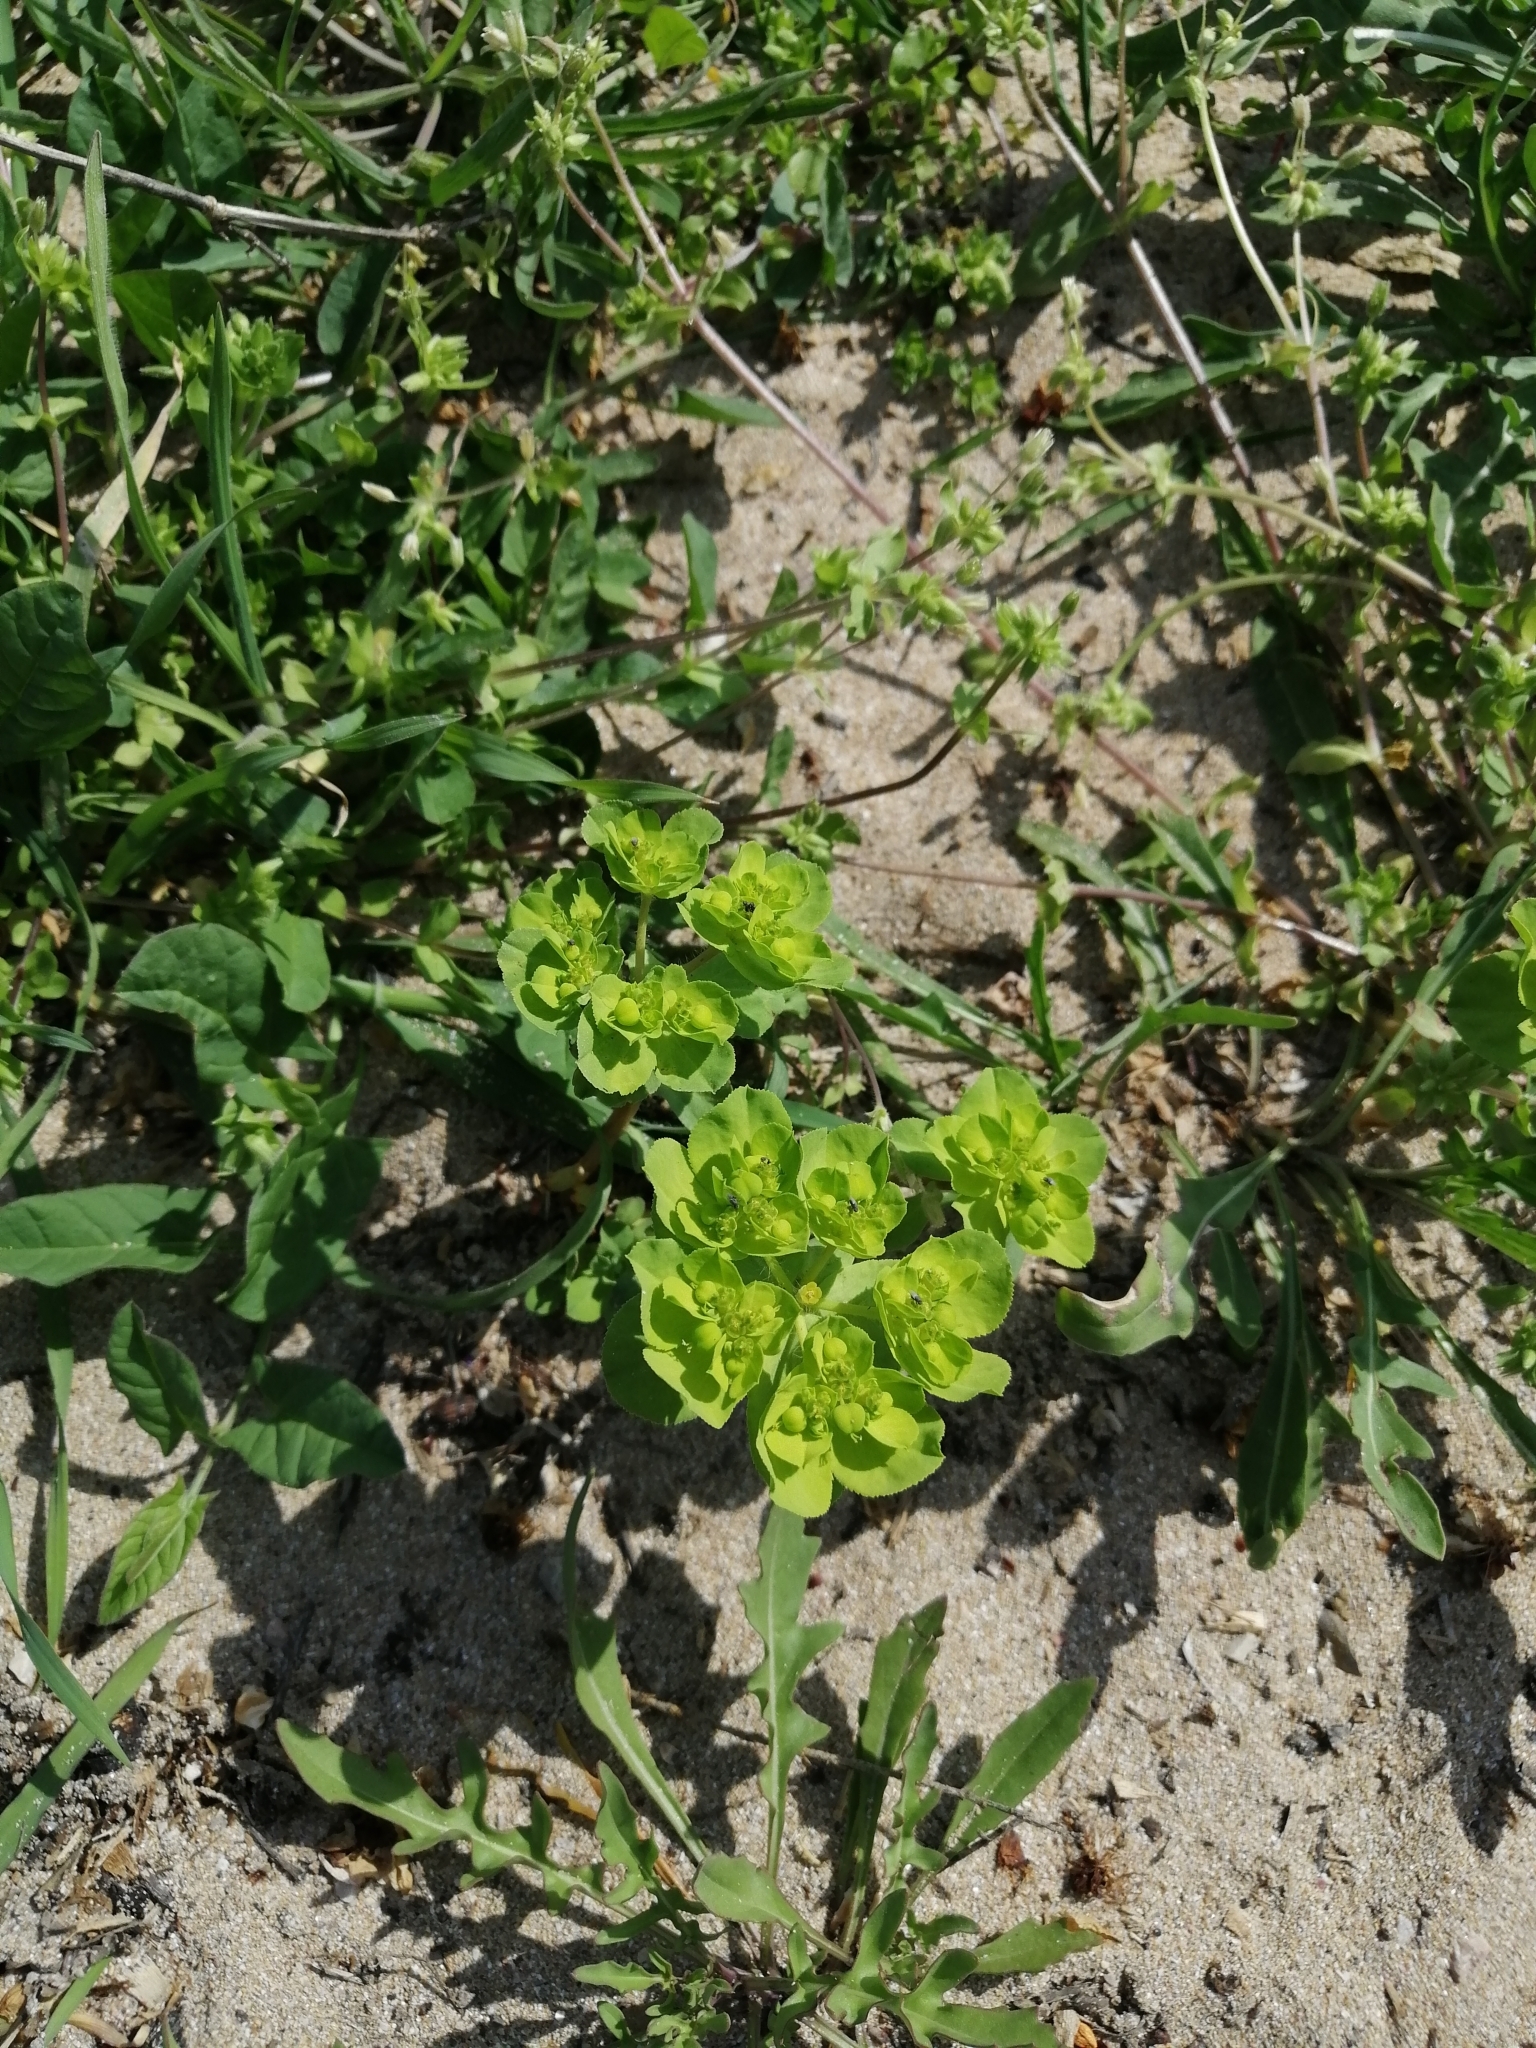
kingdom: Plantae
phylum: Tracheophyta
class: Magnoliopsida
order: Malpighiales
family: Euphorbiaceae
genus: Euphorbia
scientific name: Euphorbia helioscopia
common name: Sun spurge
